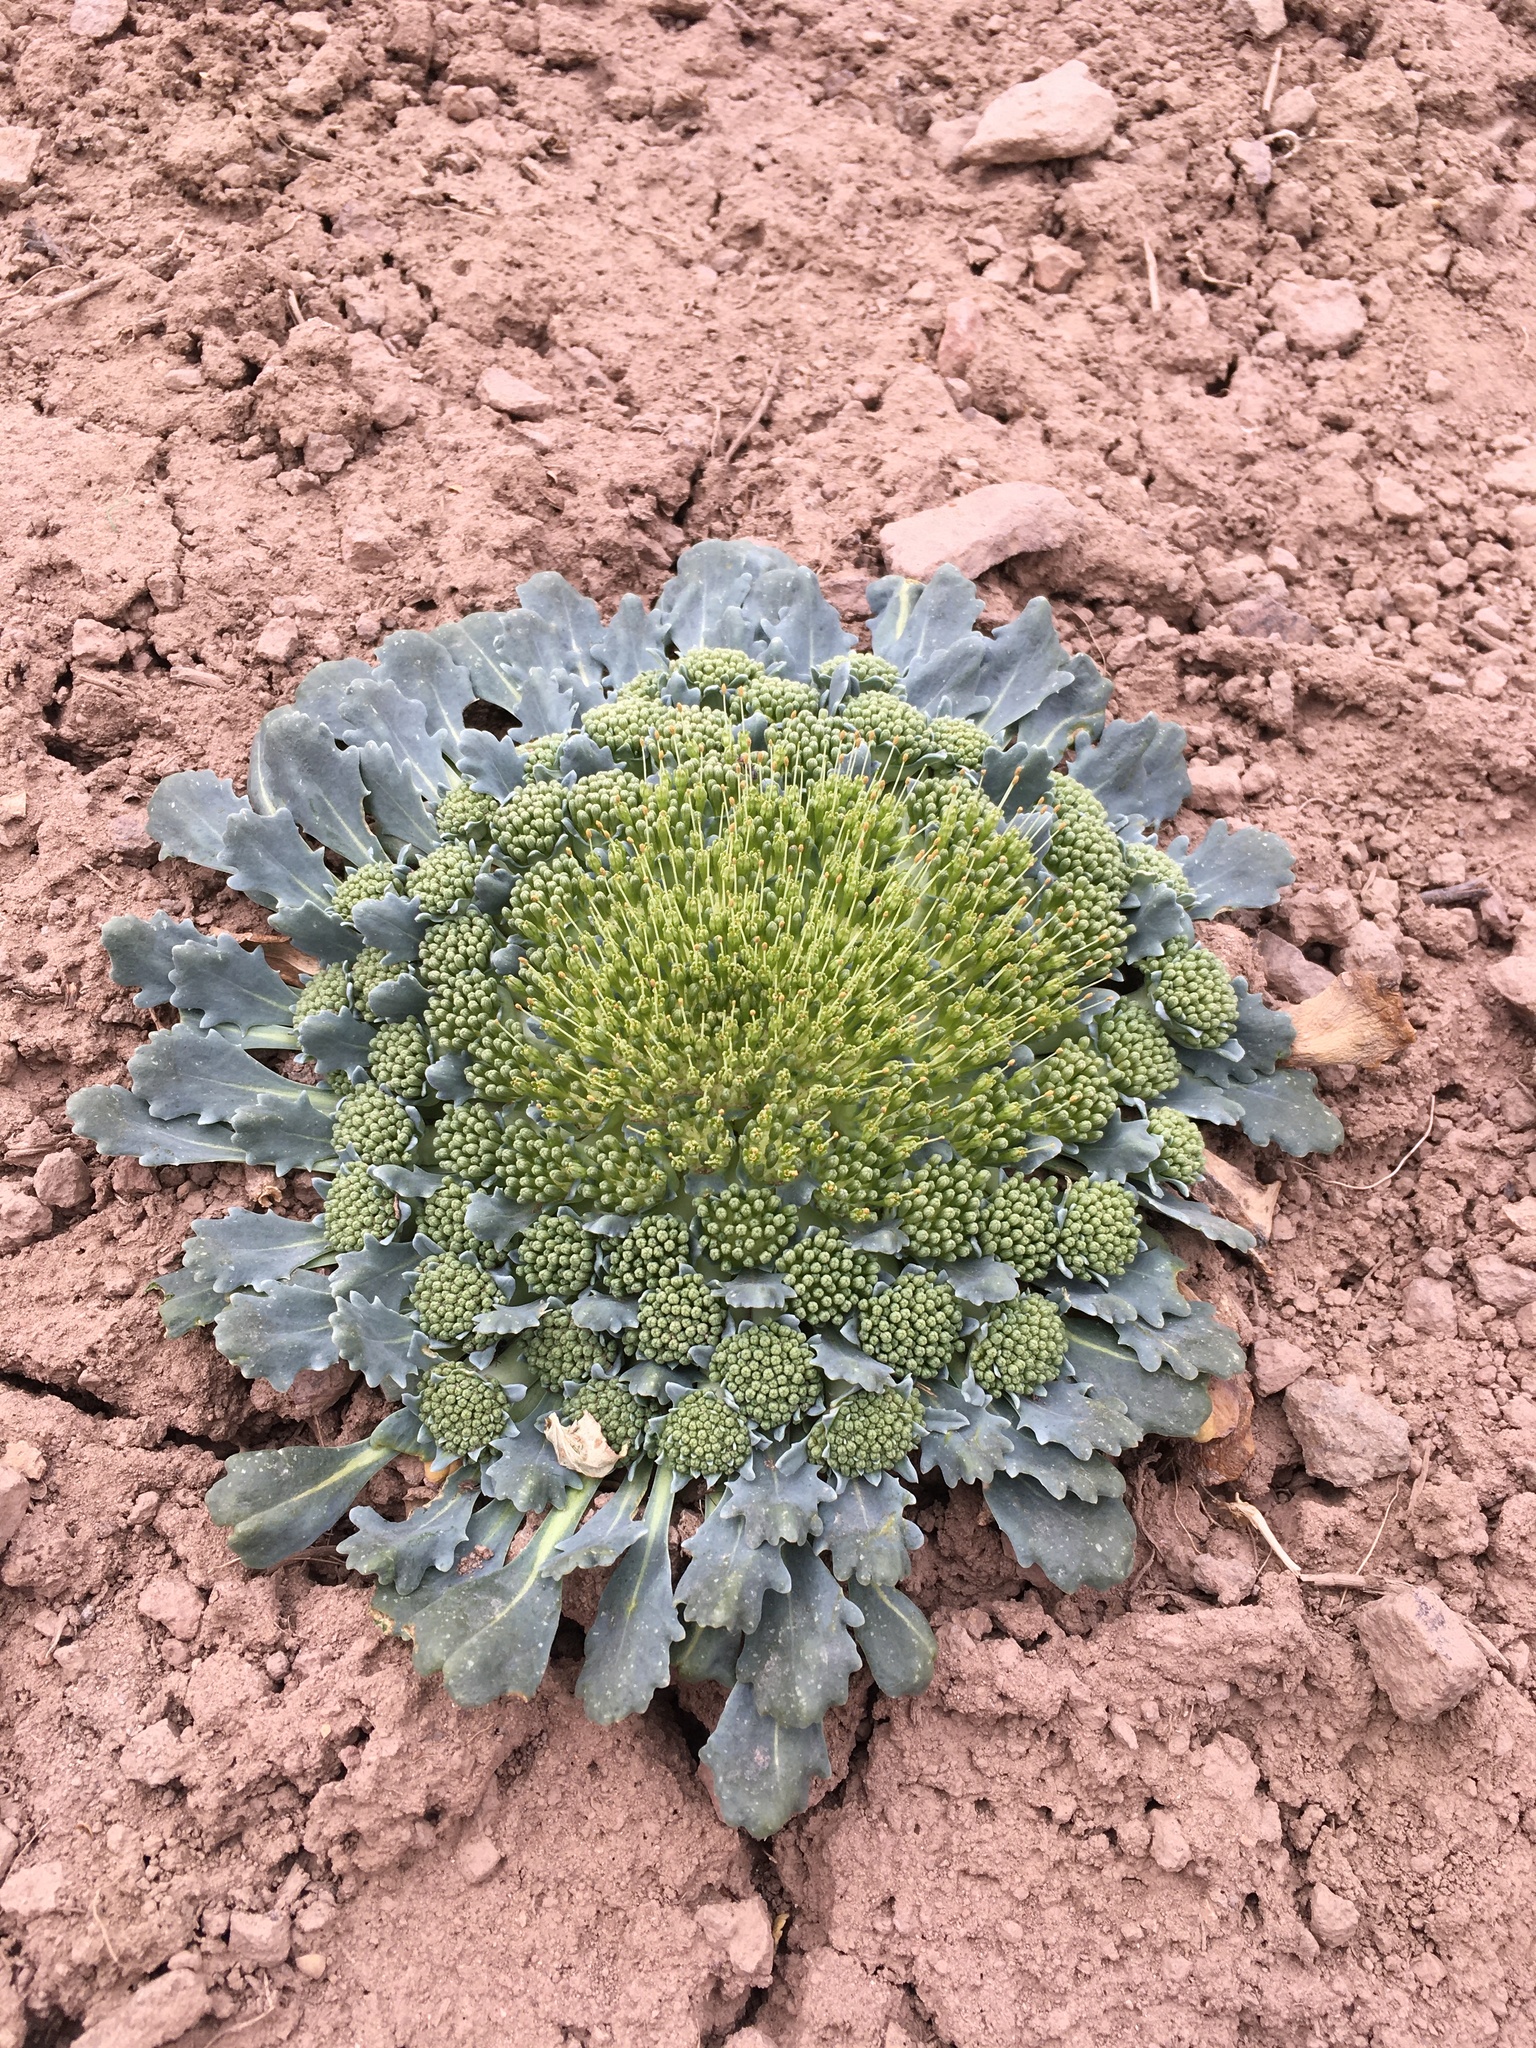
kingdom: Plantae
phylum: Tracheophyta
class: Magnoliopsida
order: Asterales
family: Calyceraceae
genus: Gamocarpha
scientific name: Gamocarpha scapigera
